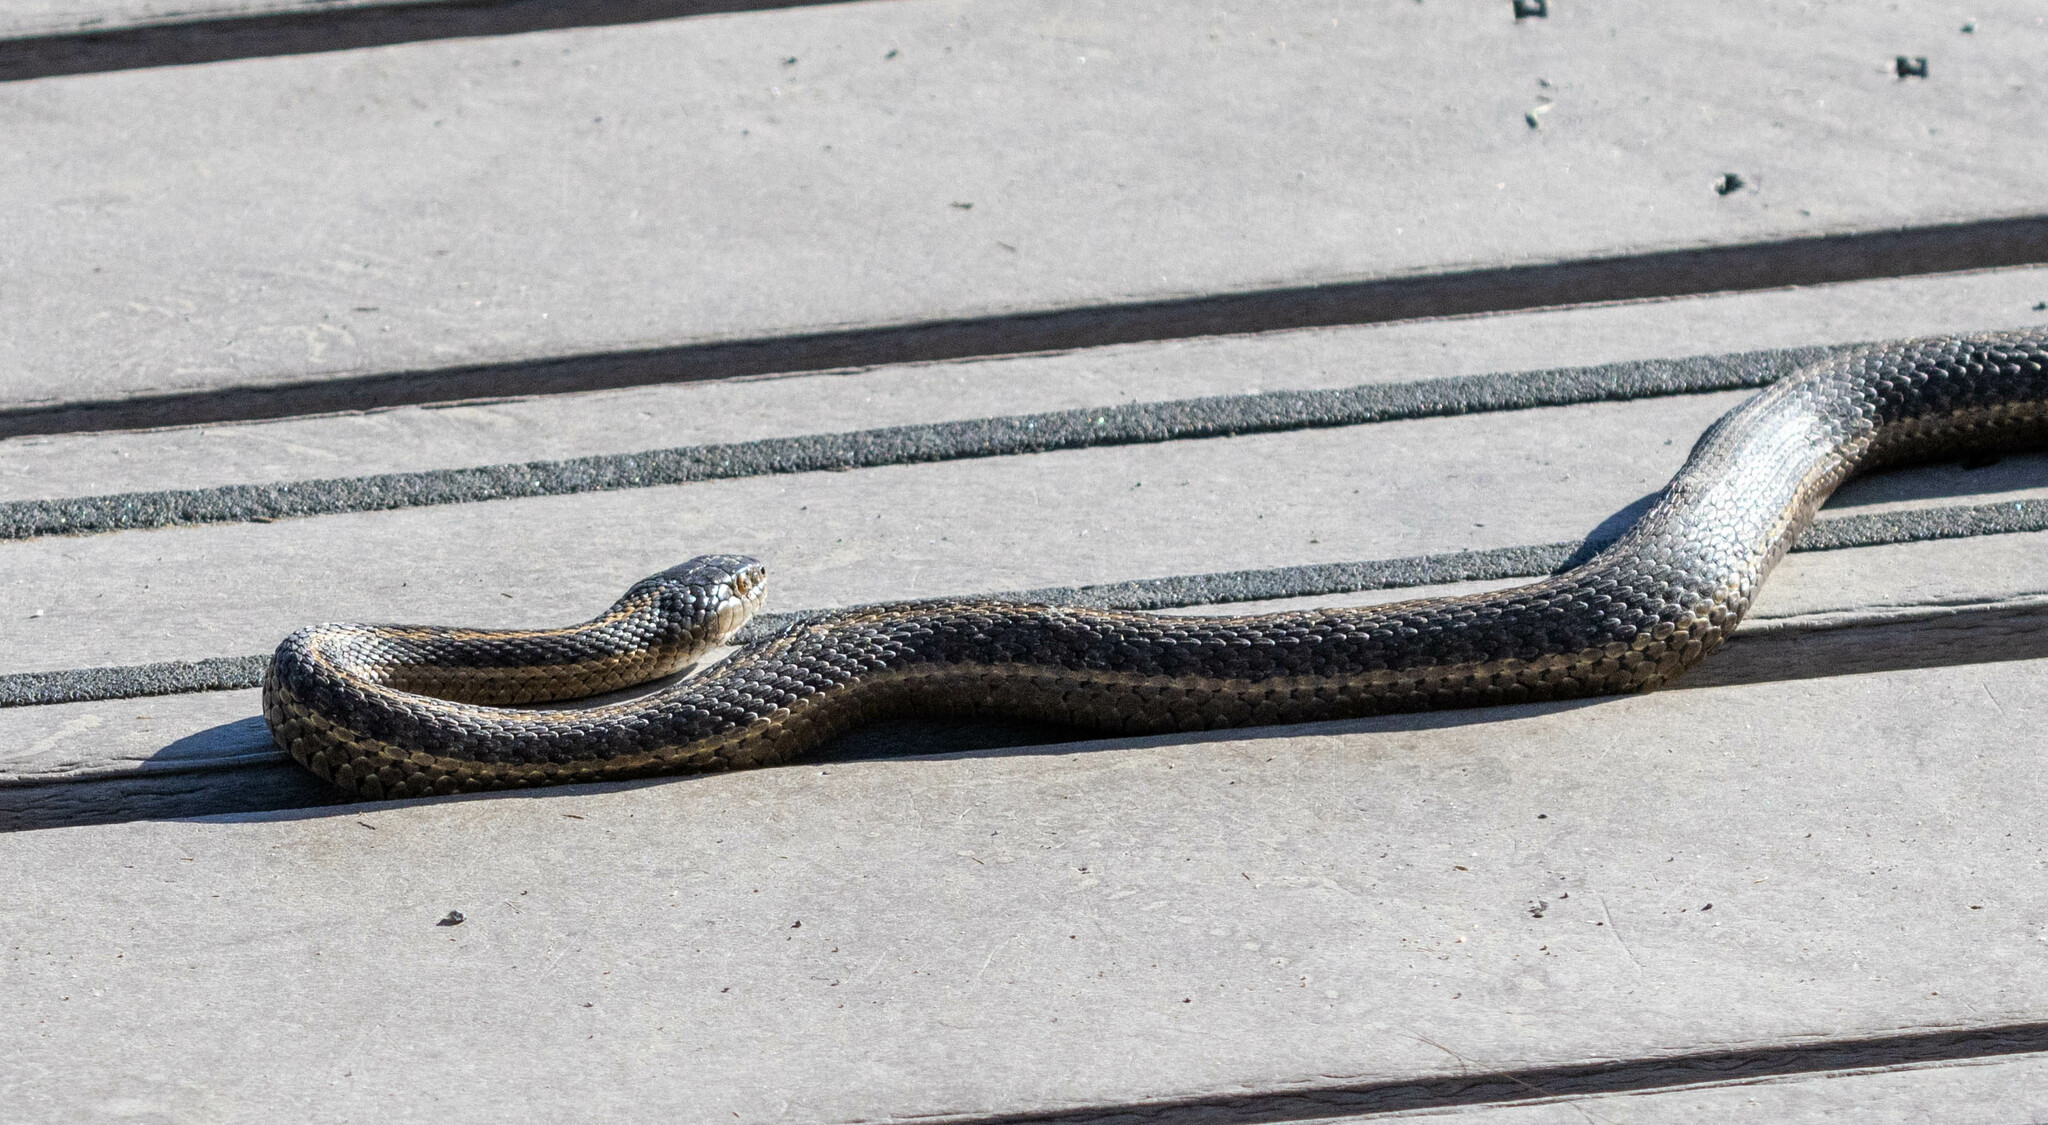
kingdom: Animalia
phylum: Chordata
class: Squamata
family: Colubridae
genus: Thamnophis
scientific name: Thamnophis elegans
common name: Western terrestrial garter snake
